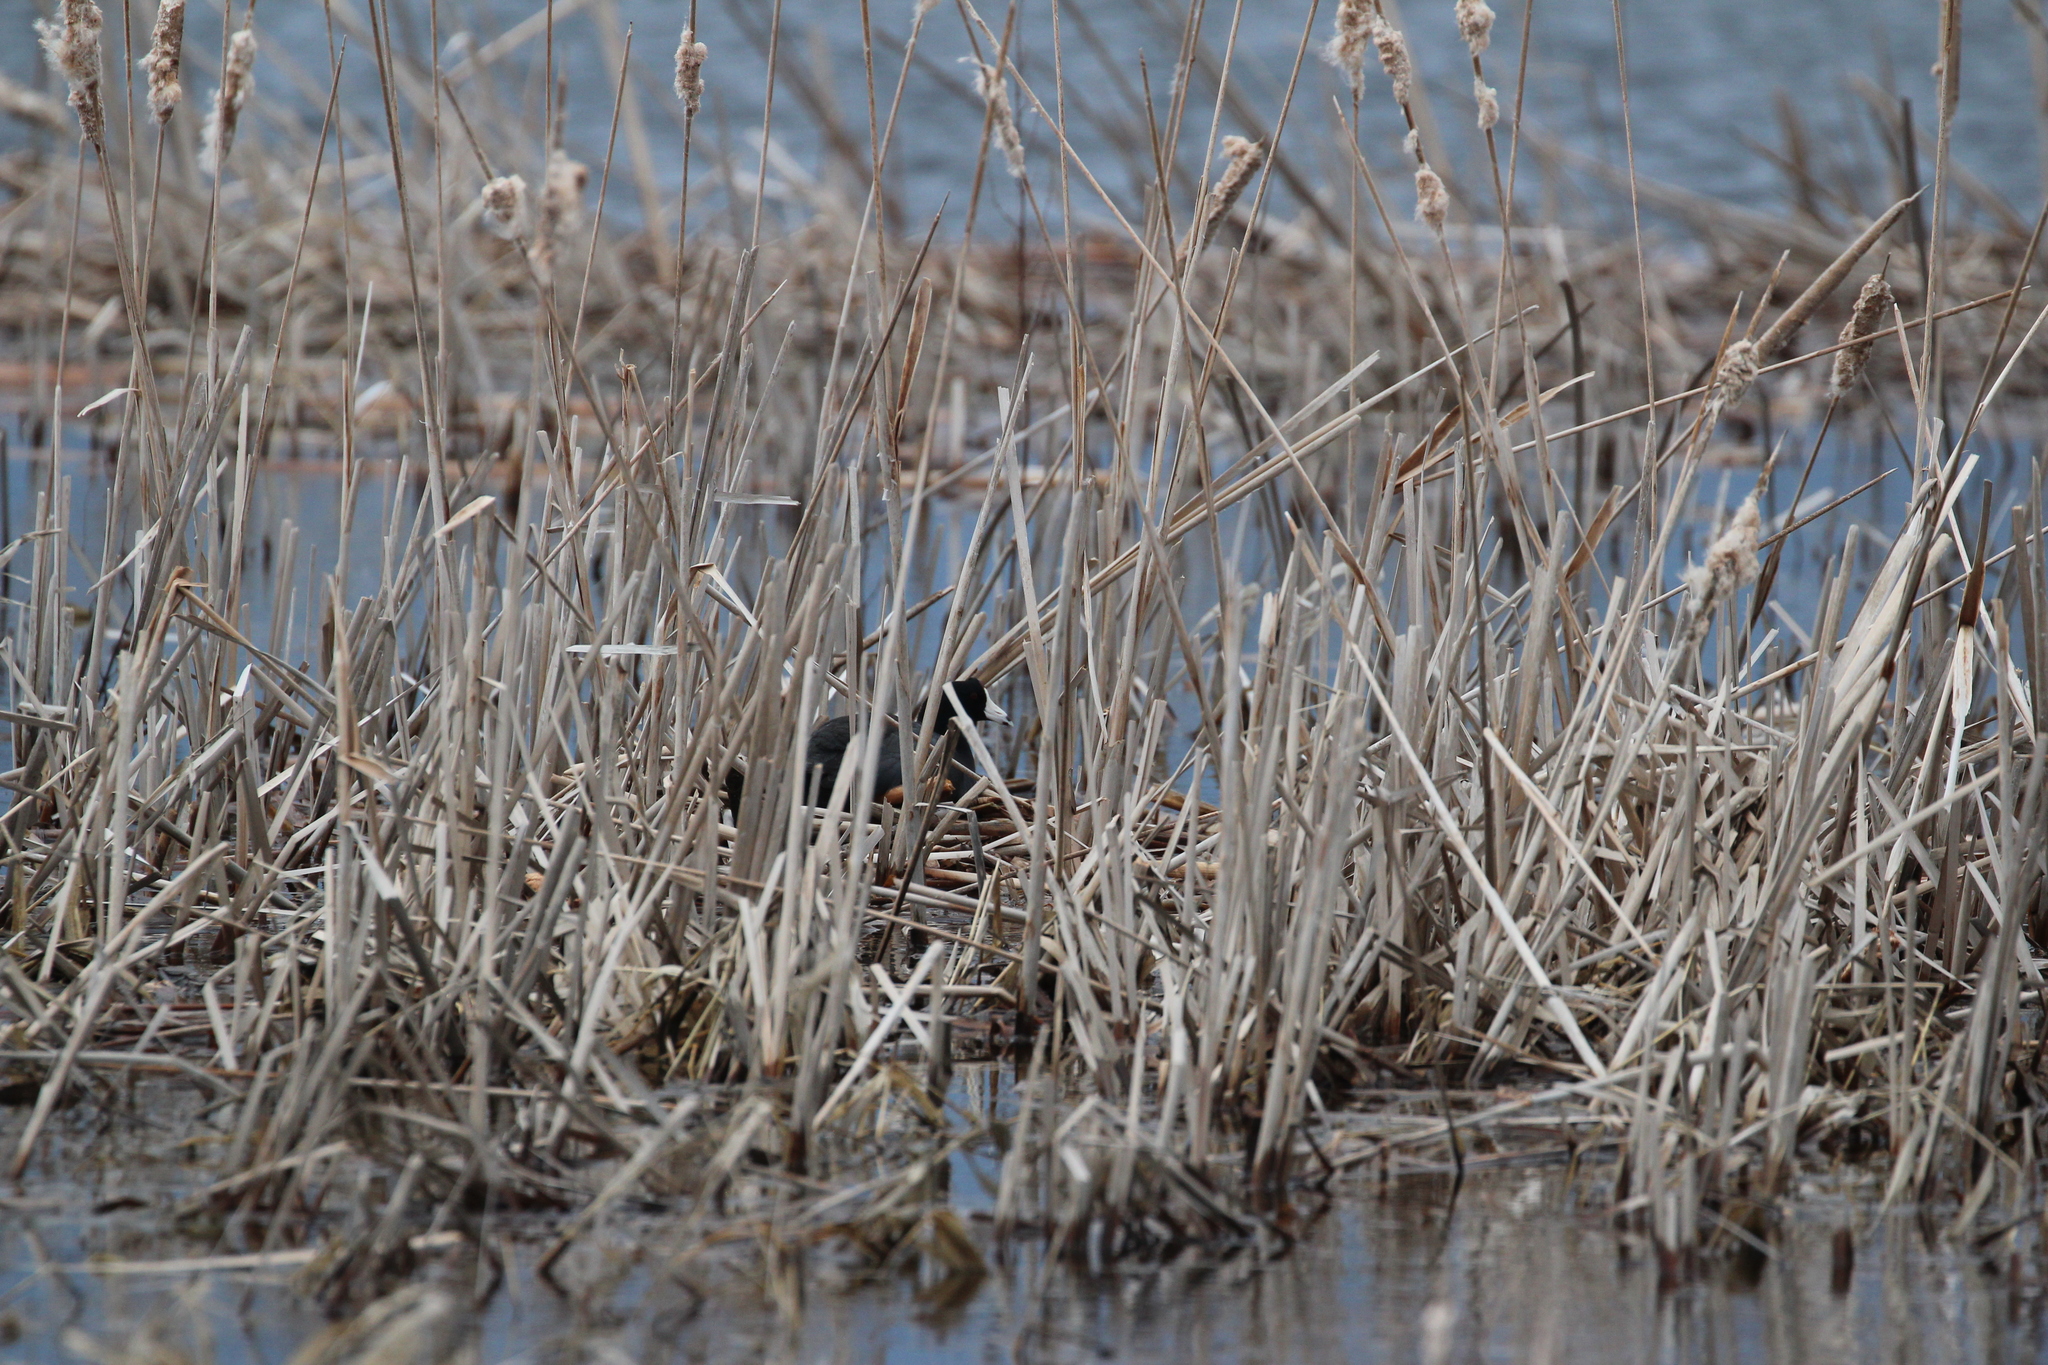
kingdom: Animalia
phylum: Chordata
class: Aves
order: Gruiformes
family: Rallidae
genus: Fulica
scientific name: Fulica americana
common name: American coot
